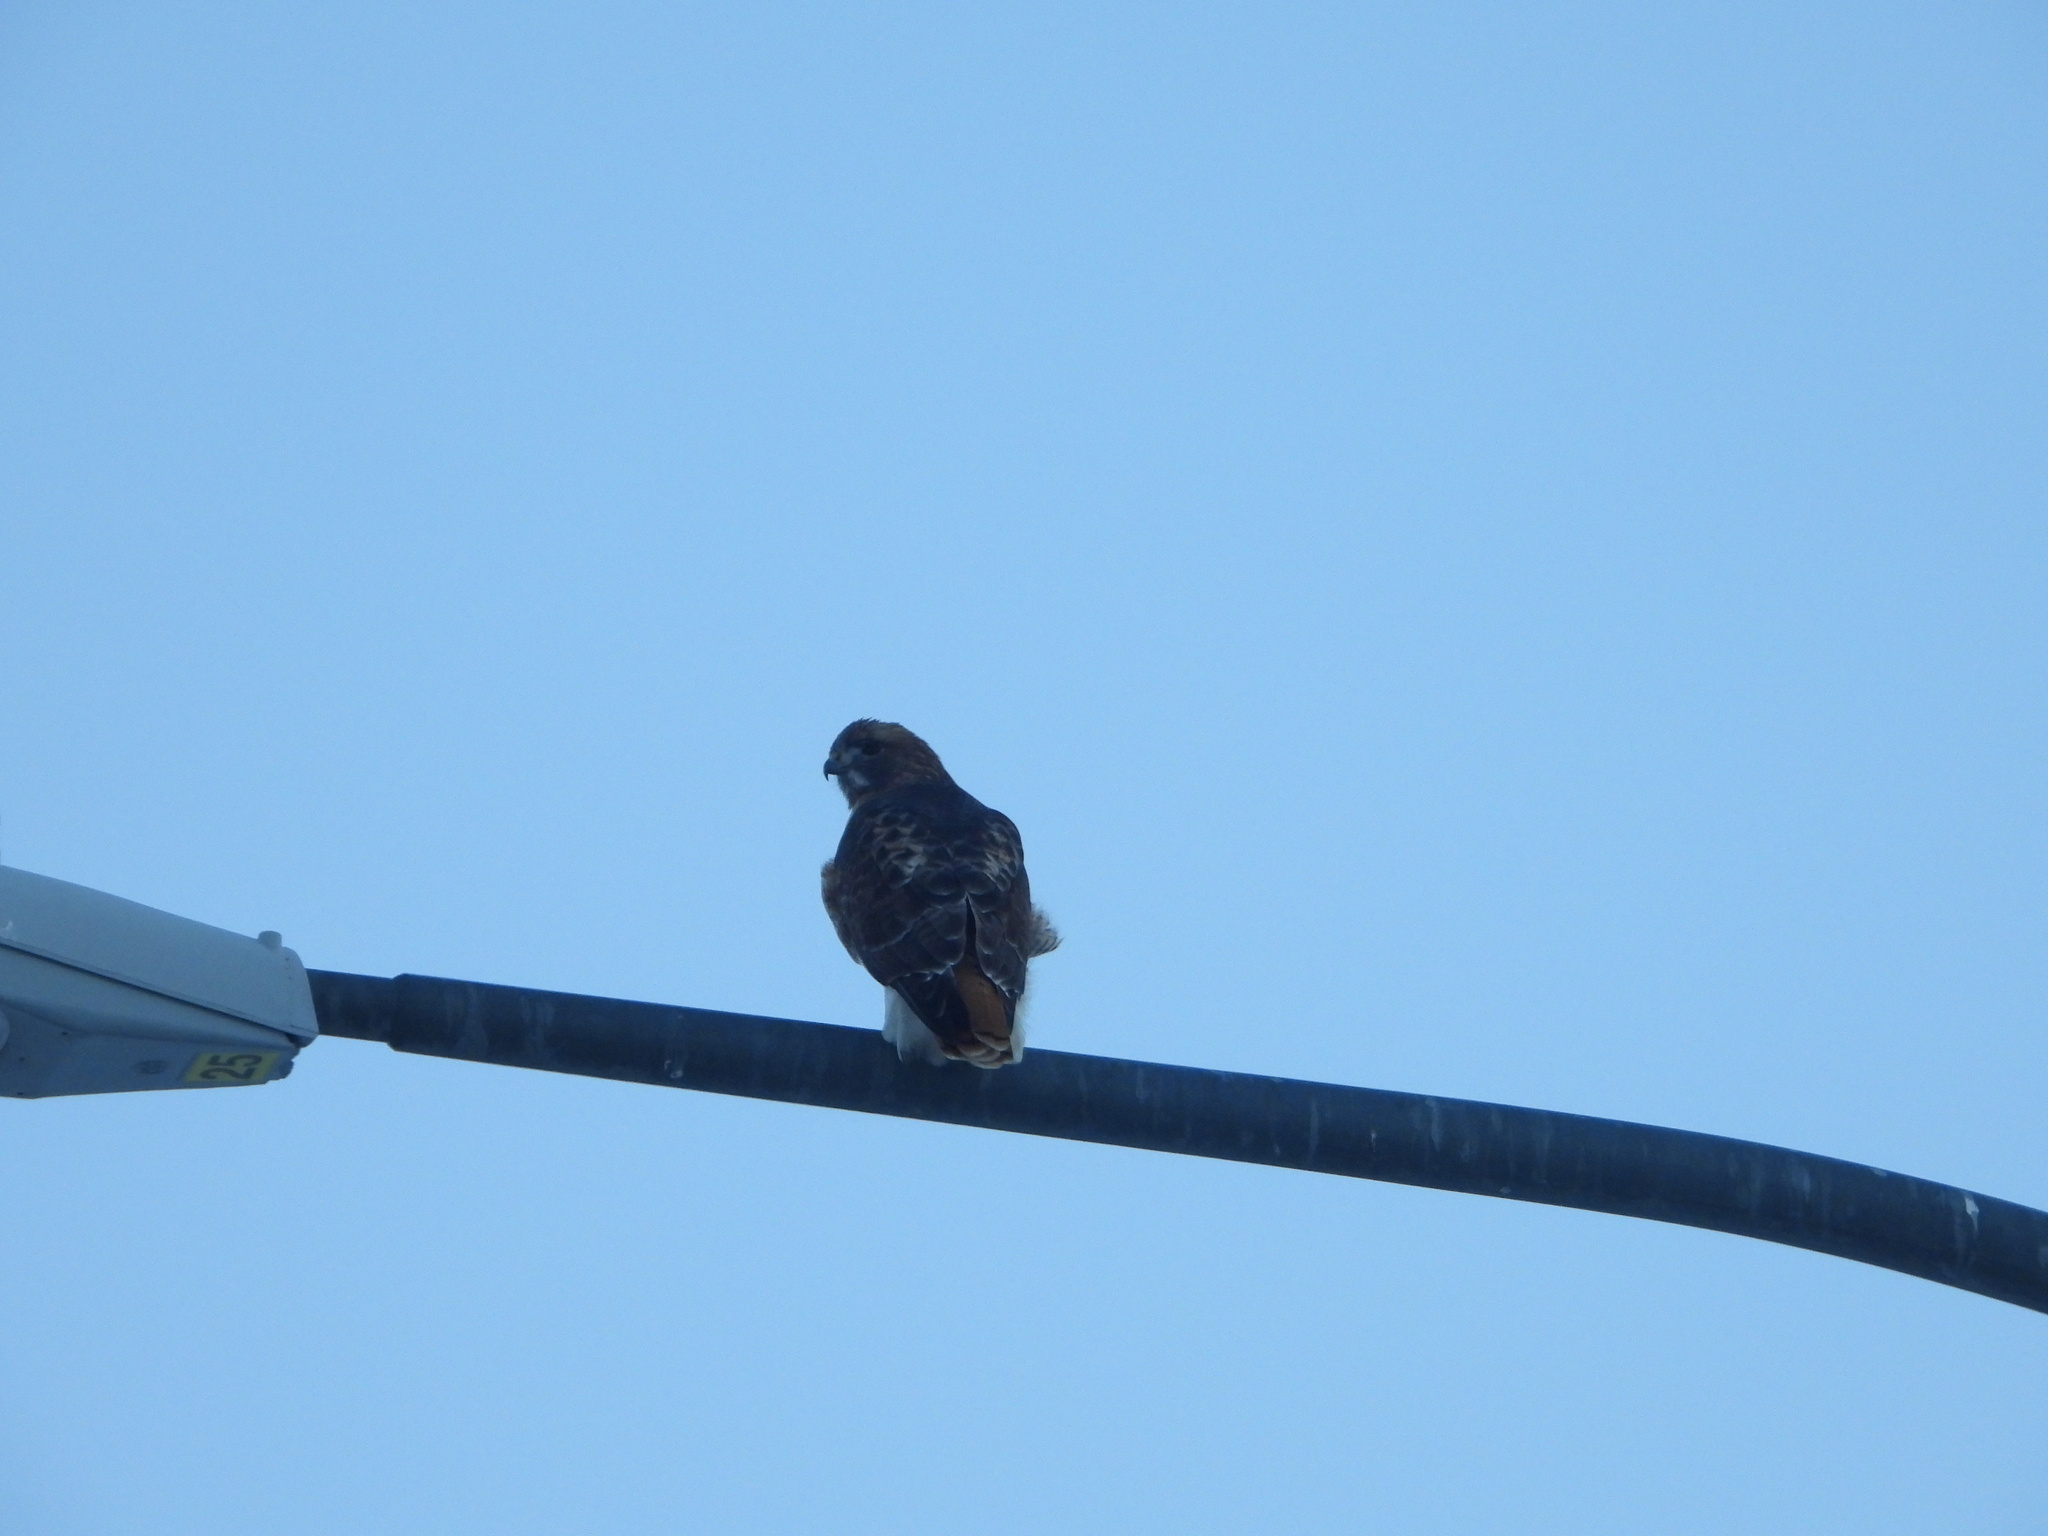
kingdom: Animalia
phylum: Chordata
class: Aves
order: Accipitriformes
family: Accipitridae
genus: Buteo
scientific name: Buteo jamaicensis
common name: Red-tailed hawk
